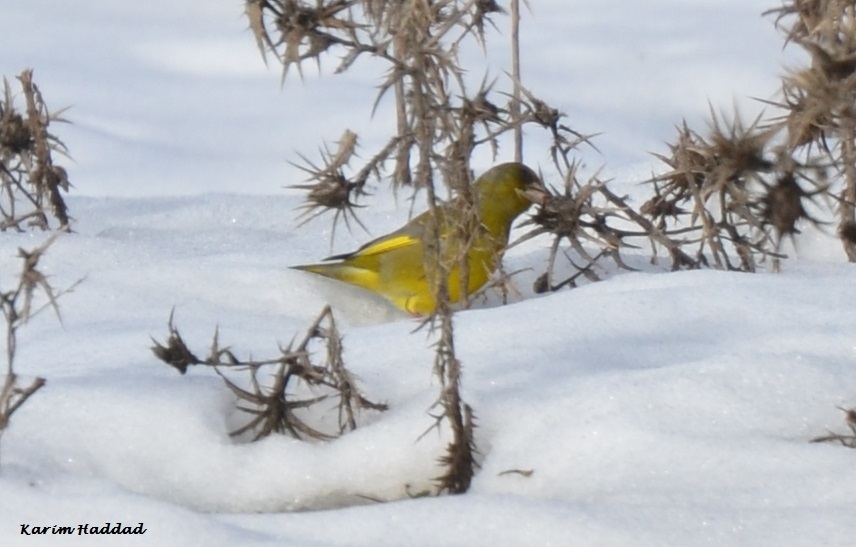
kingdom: Plantae
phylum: Tracheophyta
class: Liliopsida
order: Poales
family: Poaceae
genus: Chloris
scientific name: Chloris chloris
